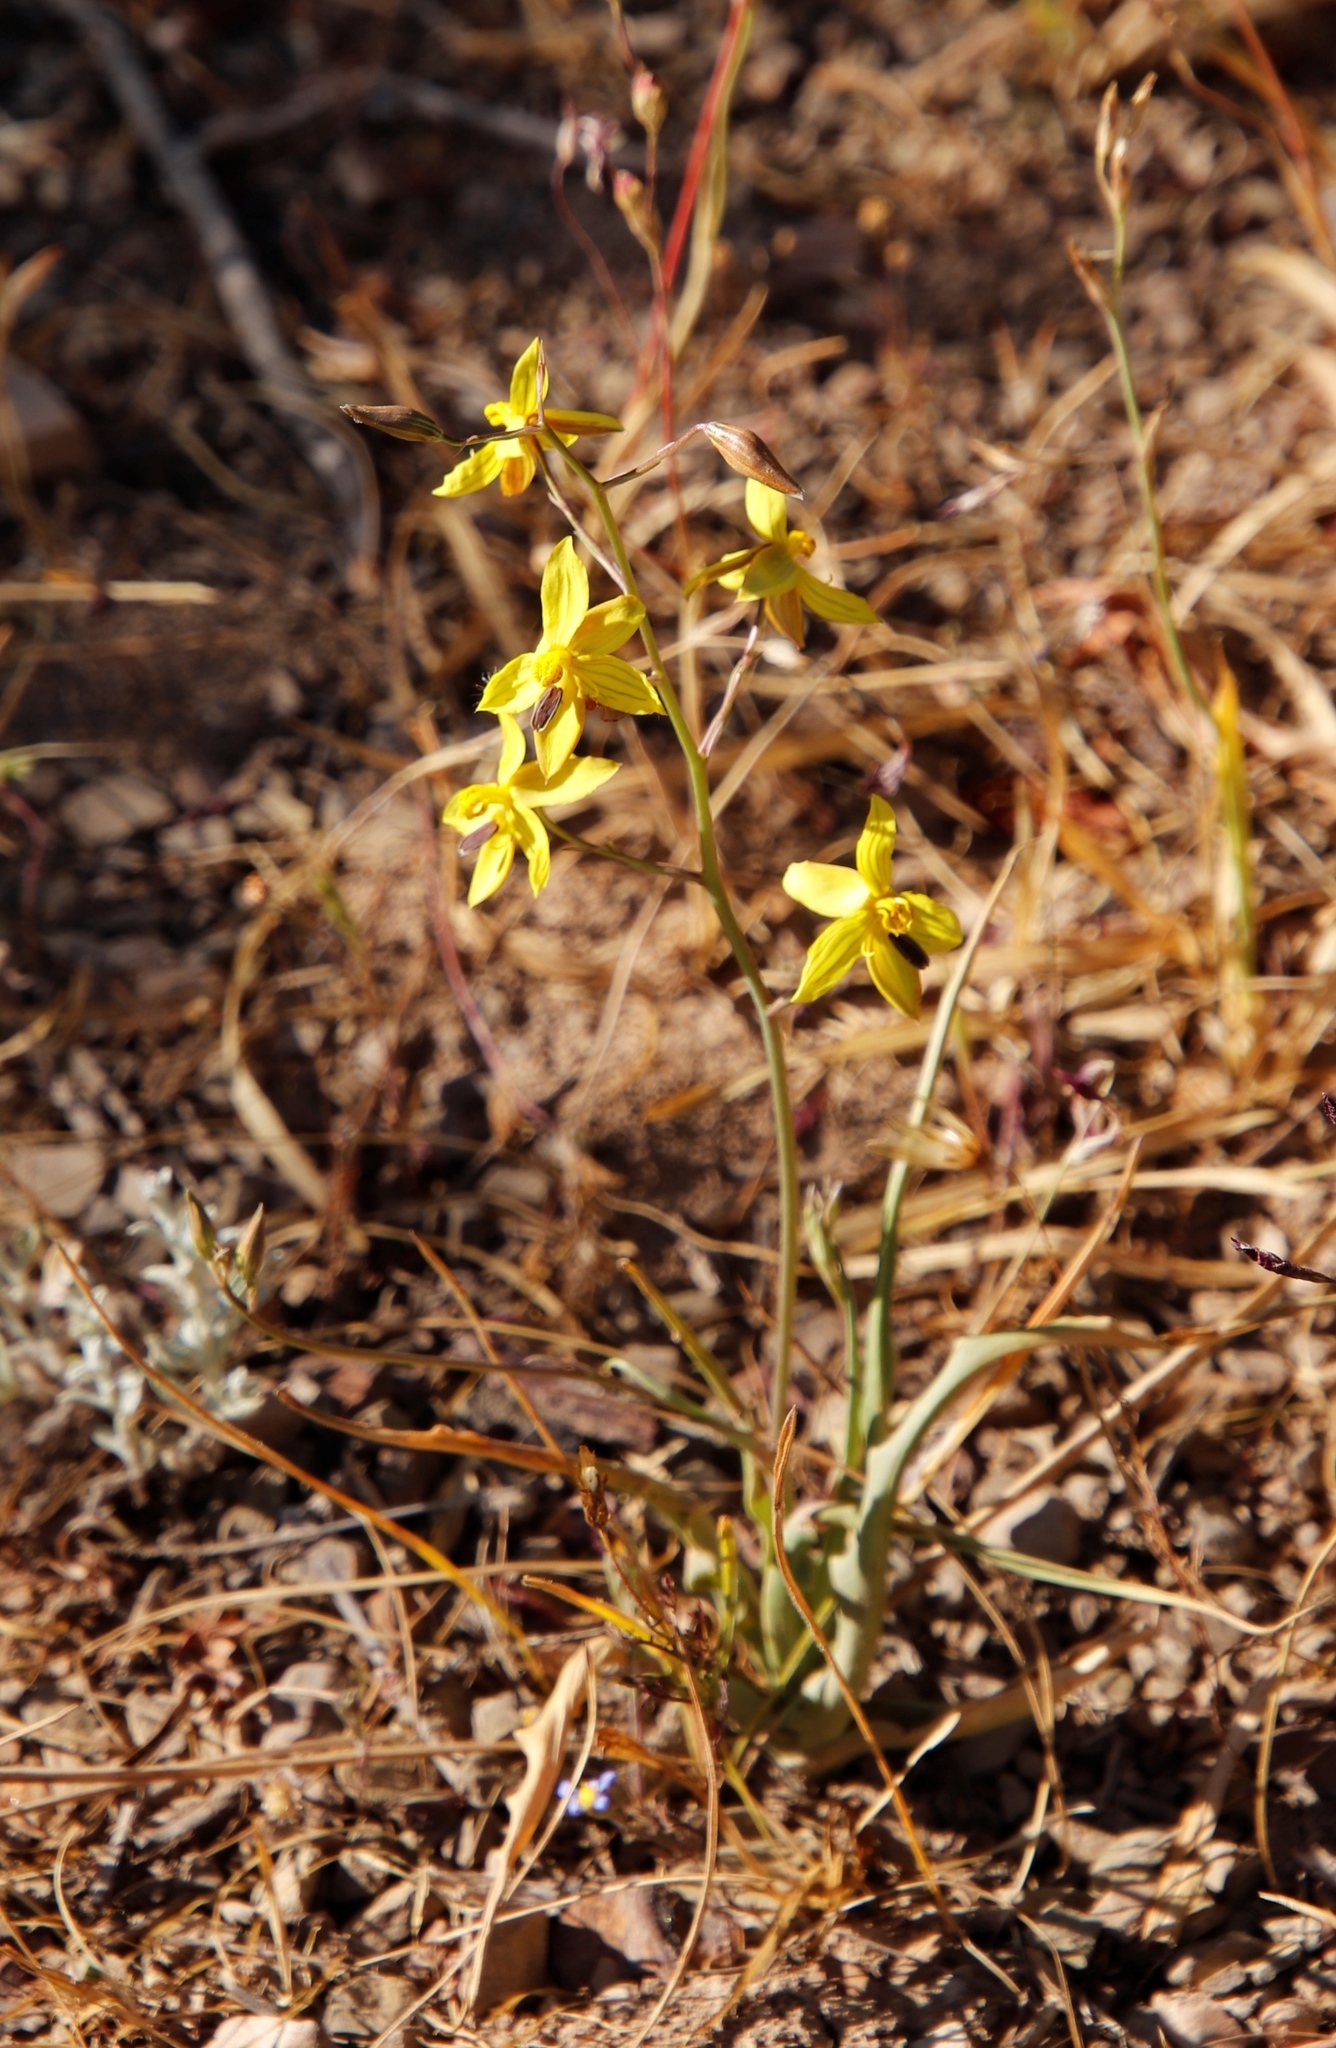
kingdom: Plantae
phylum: Tracheophyta
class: Liliopsida
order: Asparagales
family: Tecophilaeaceae
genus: Cyanella
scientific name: Cyanella lutea
